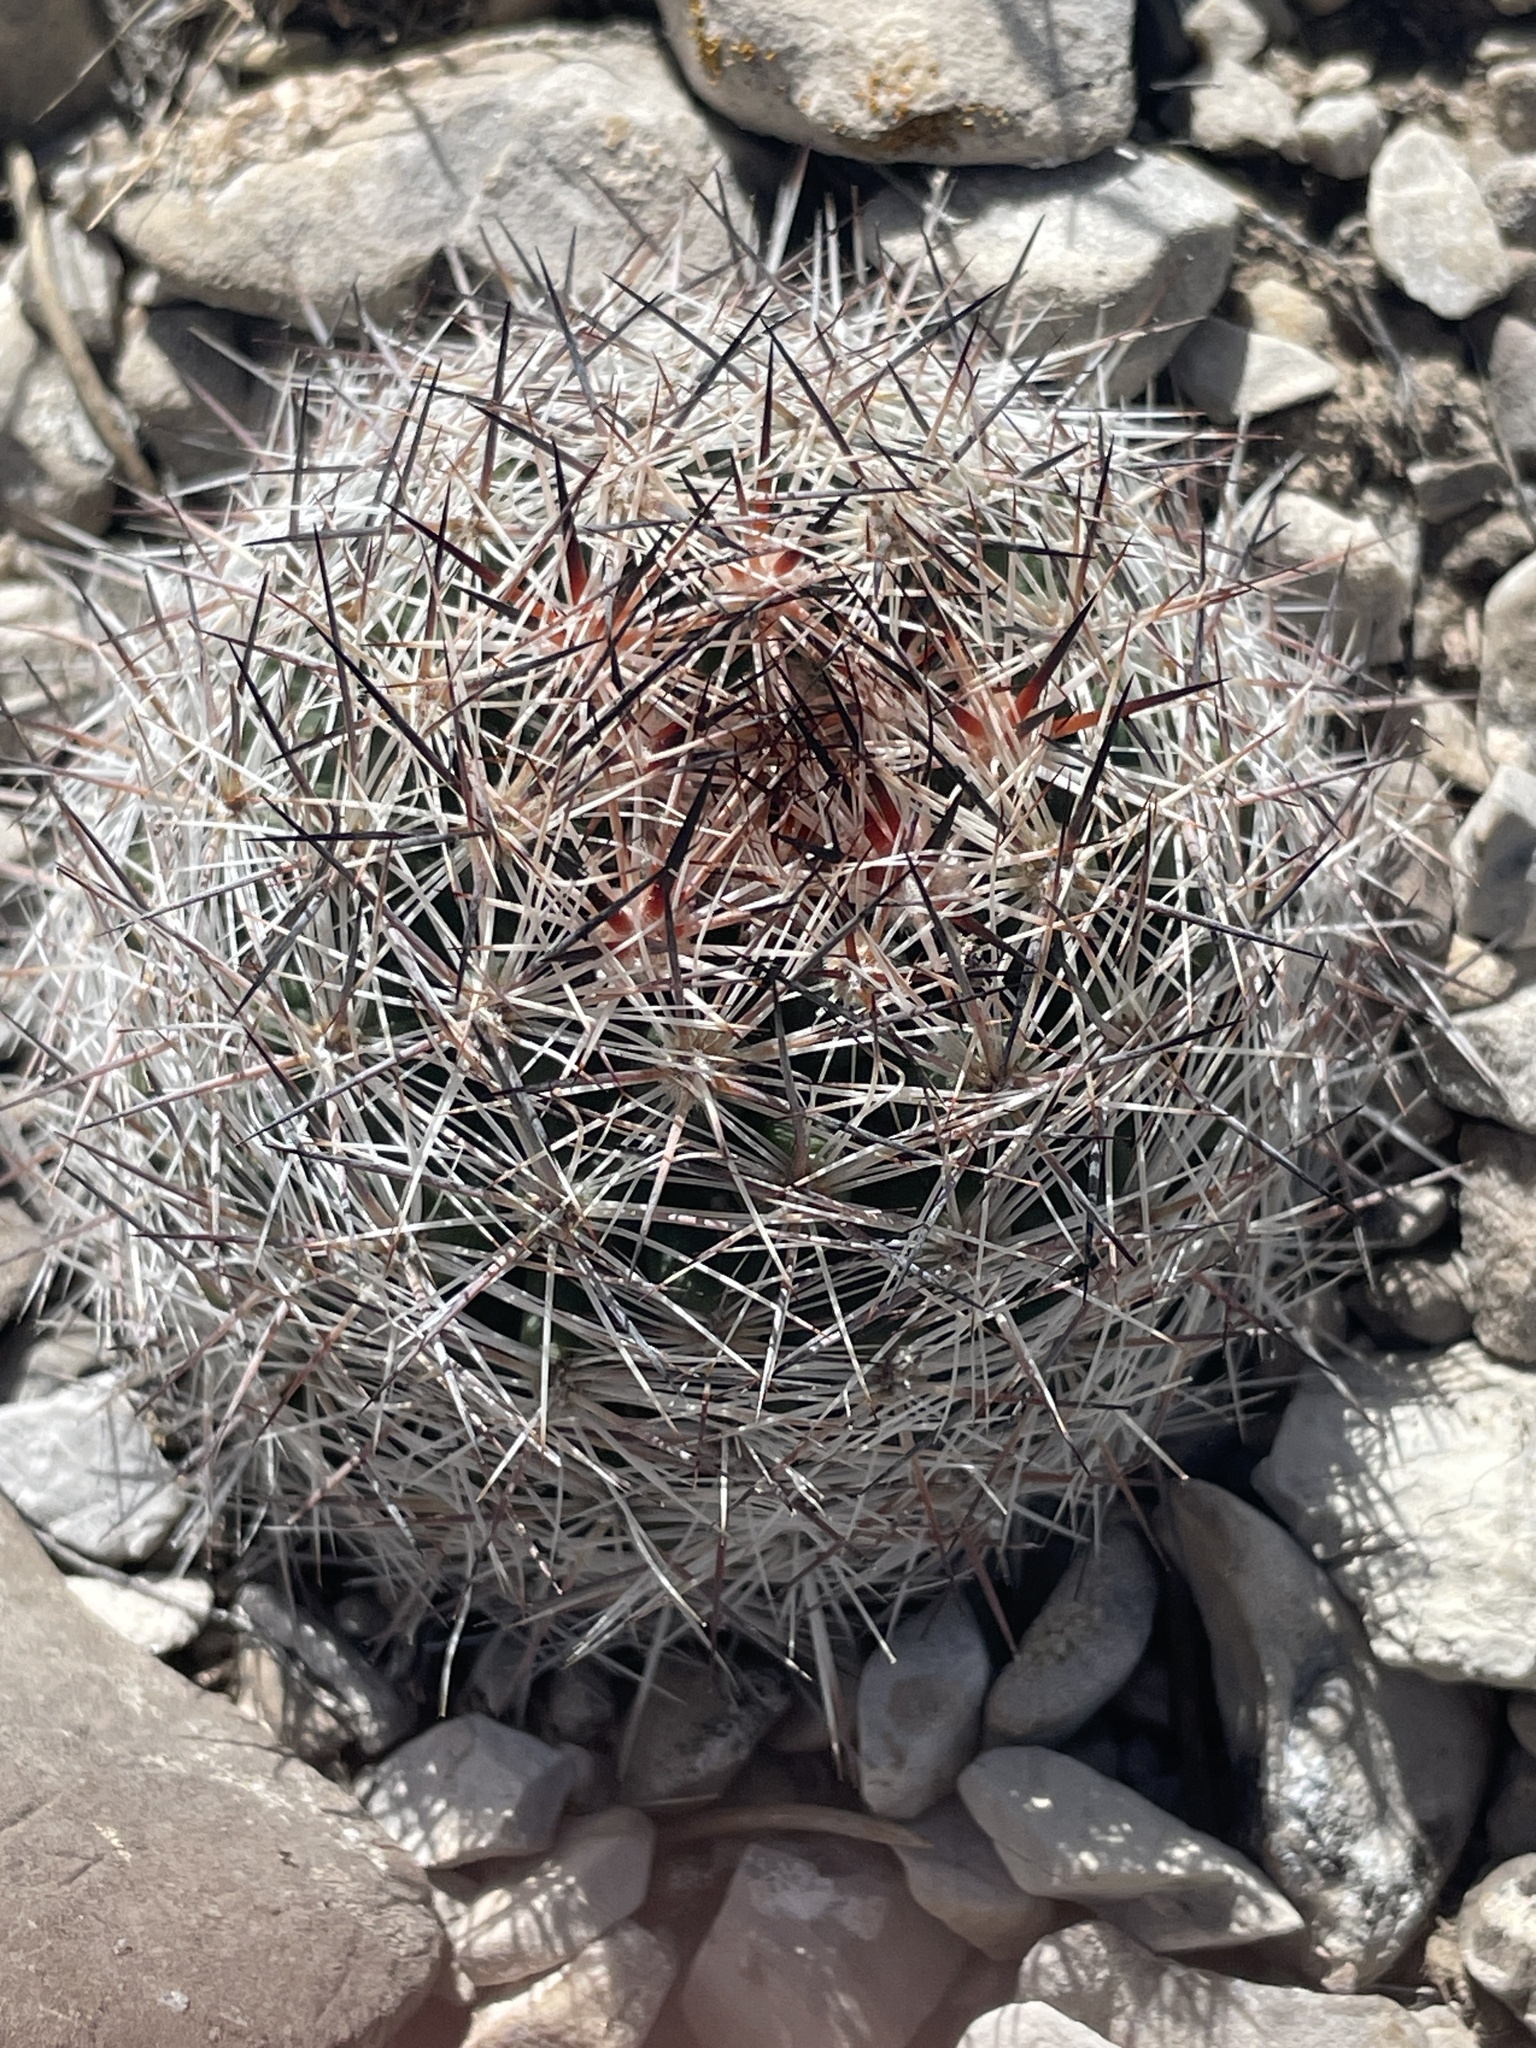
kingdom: Plantae
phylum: Tracheophyta
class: Magnoliopsida
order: Caryophyllales
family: Cactaceae
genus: Pelecyphora
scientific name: Pelecyphora vivipara
